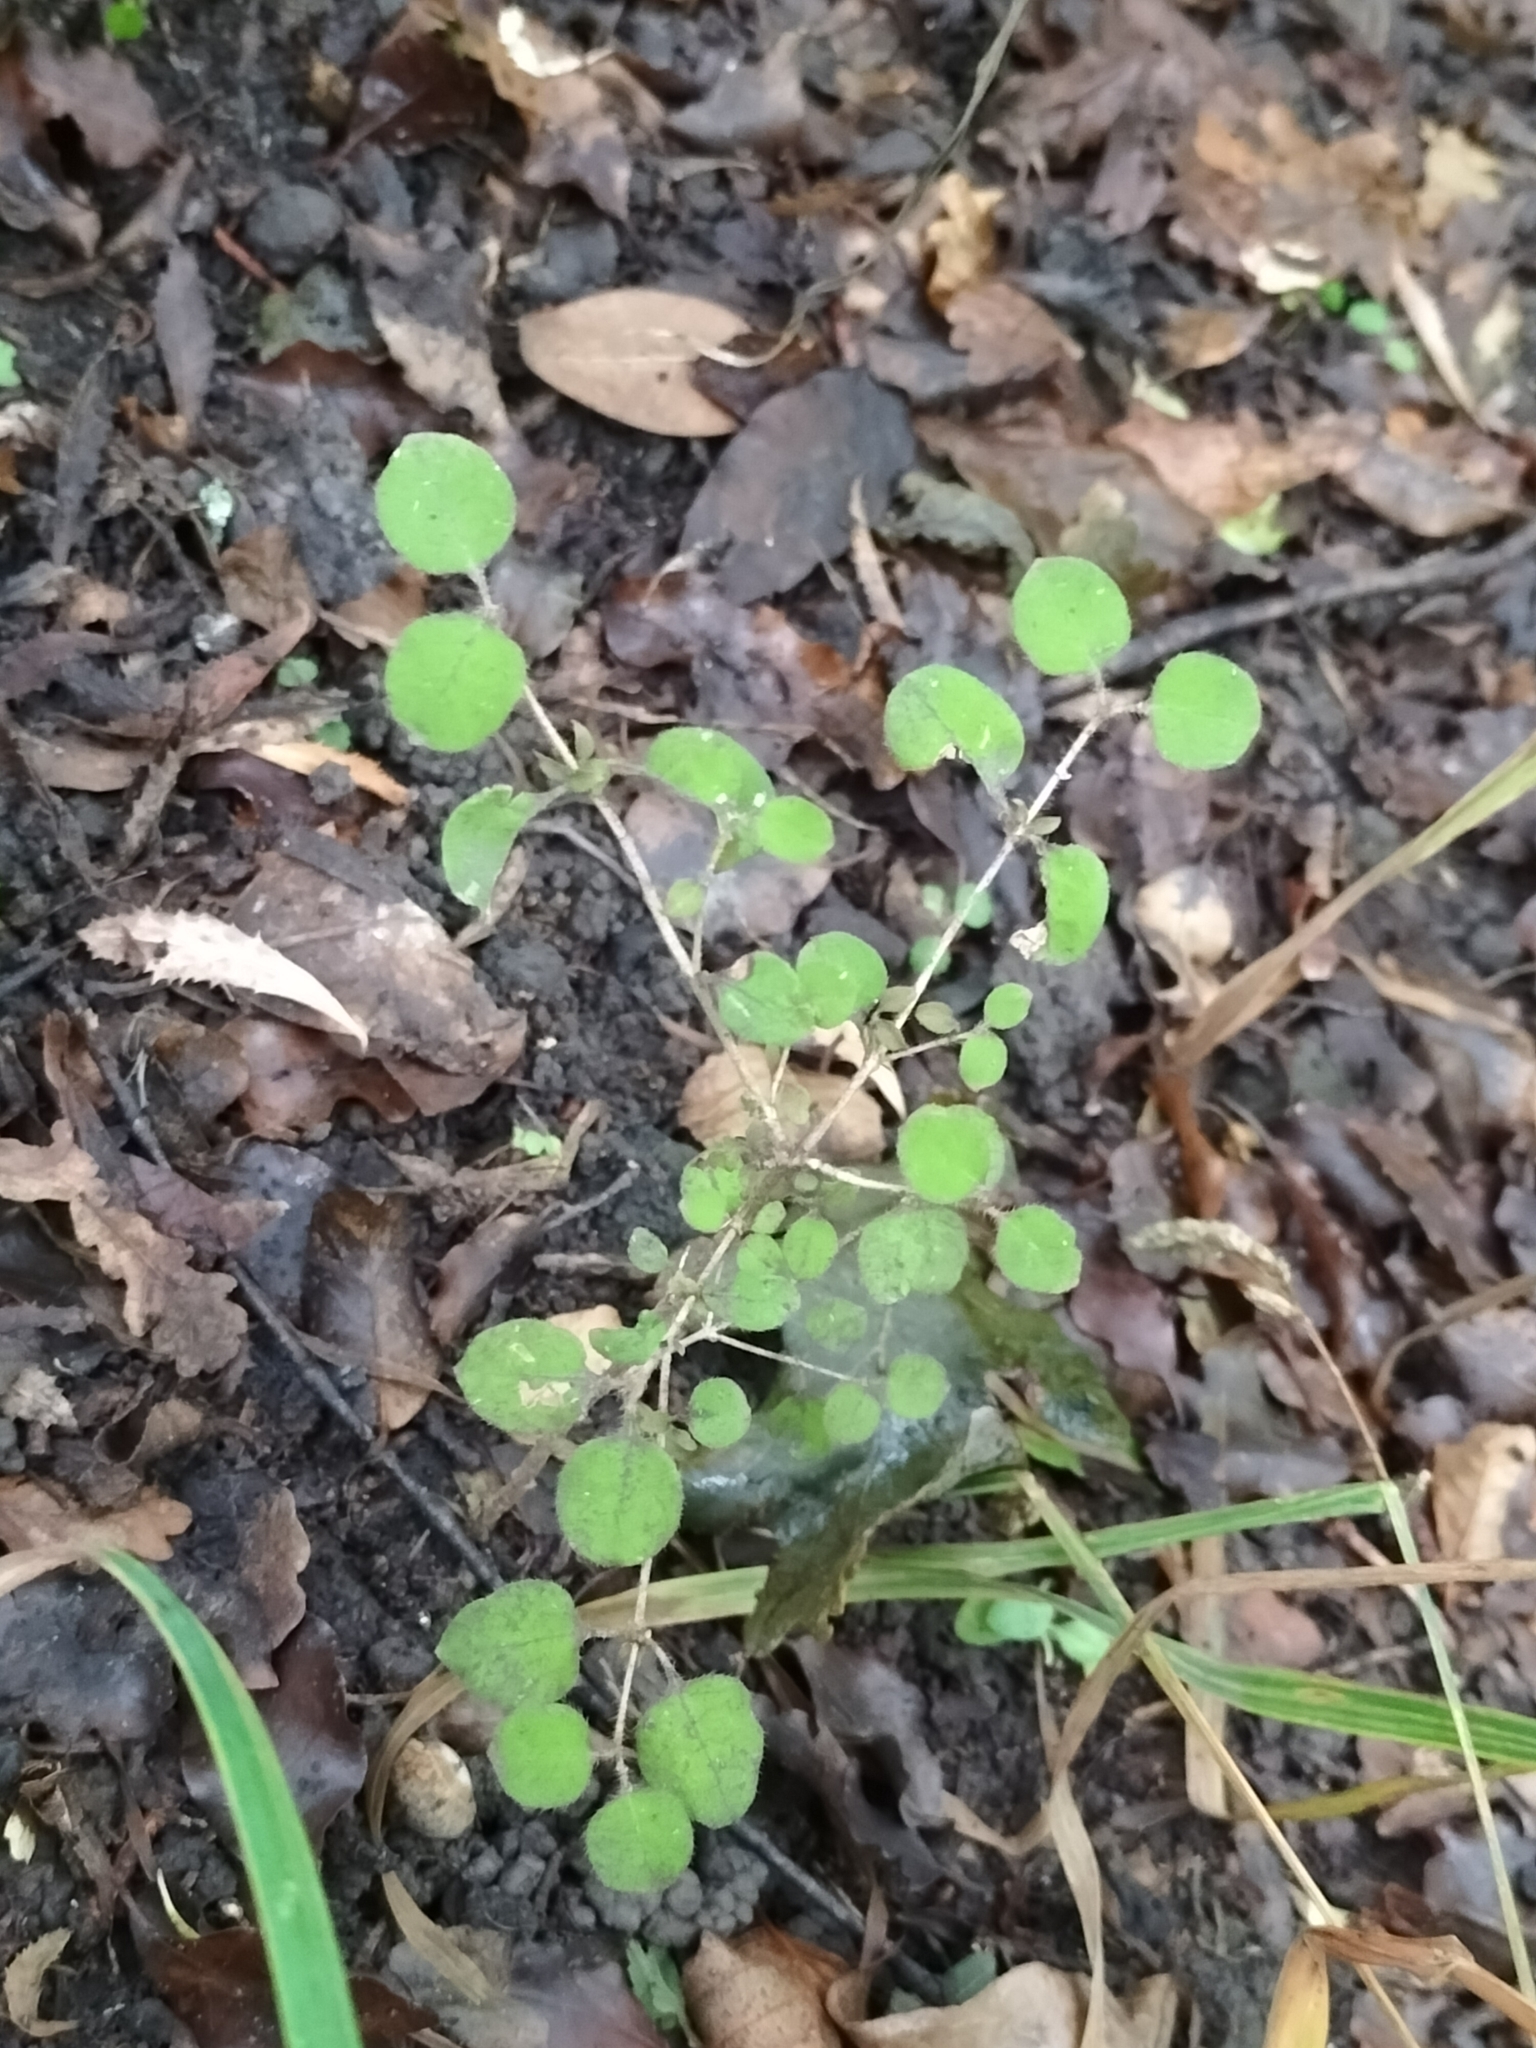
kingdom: Plantae
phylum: Tracheophyta
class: Magnoliopsida
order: Gentianales
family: Rubiaceae
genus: Coprosma
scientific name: Coprosma rotundifolia
